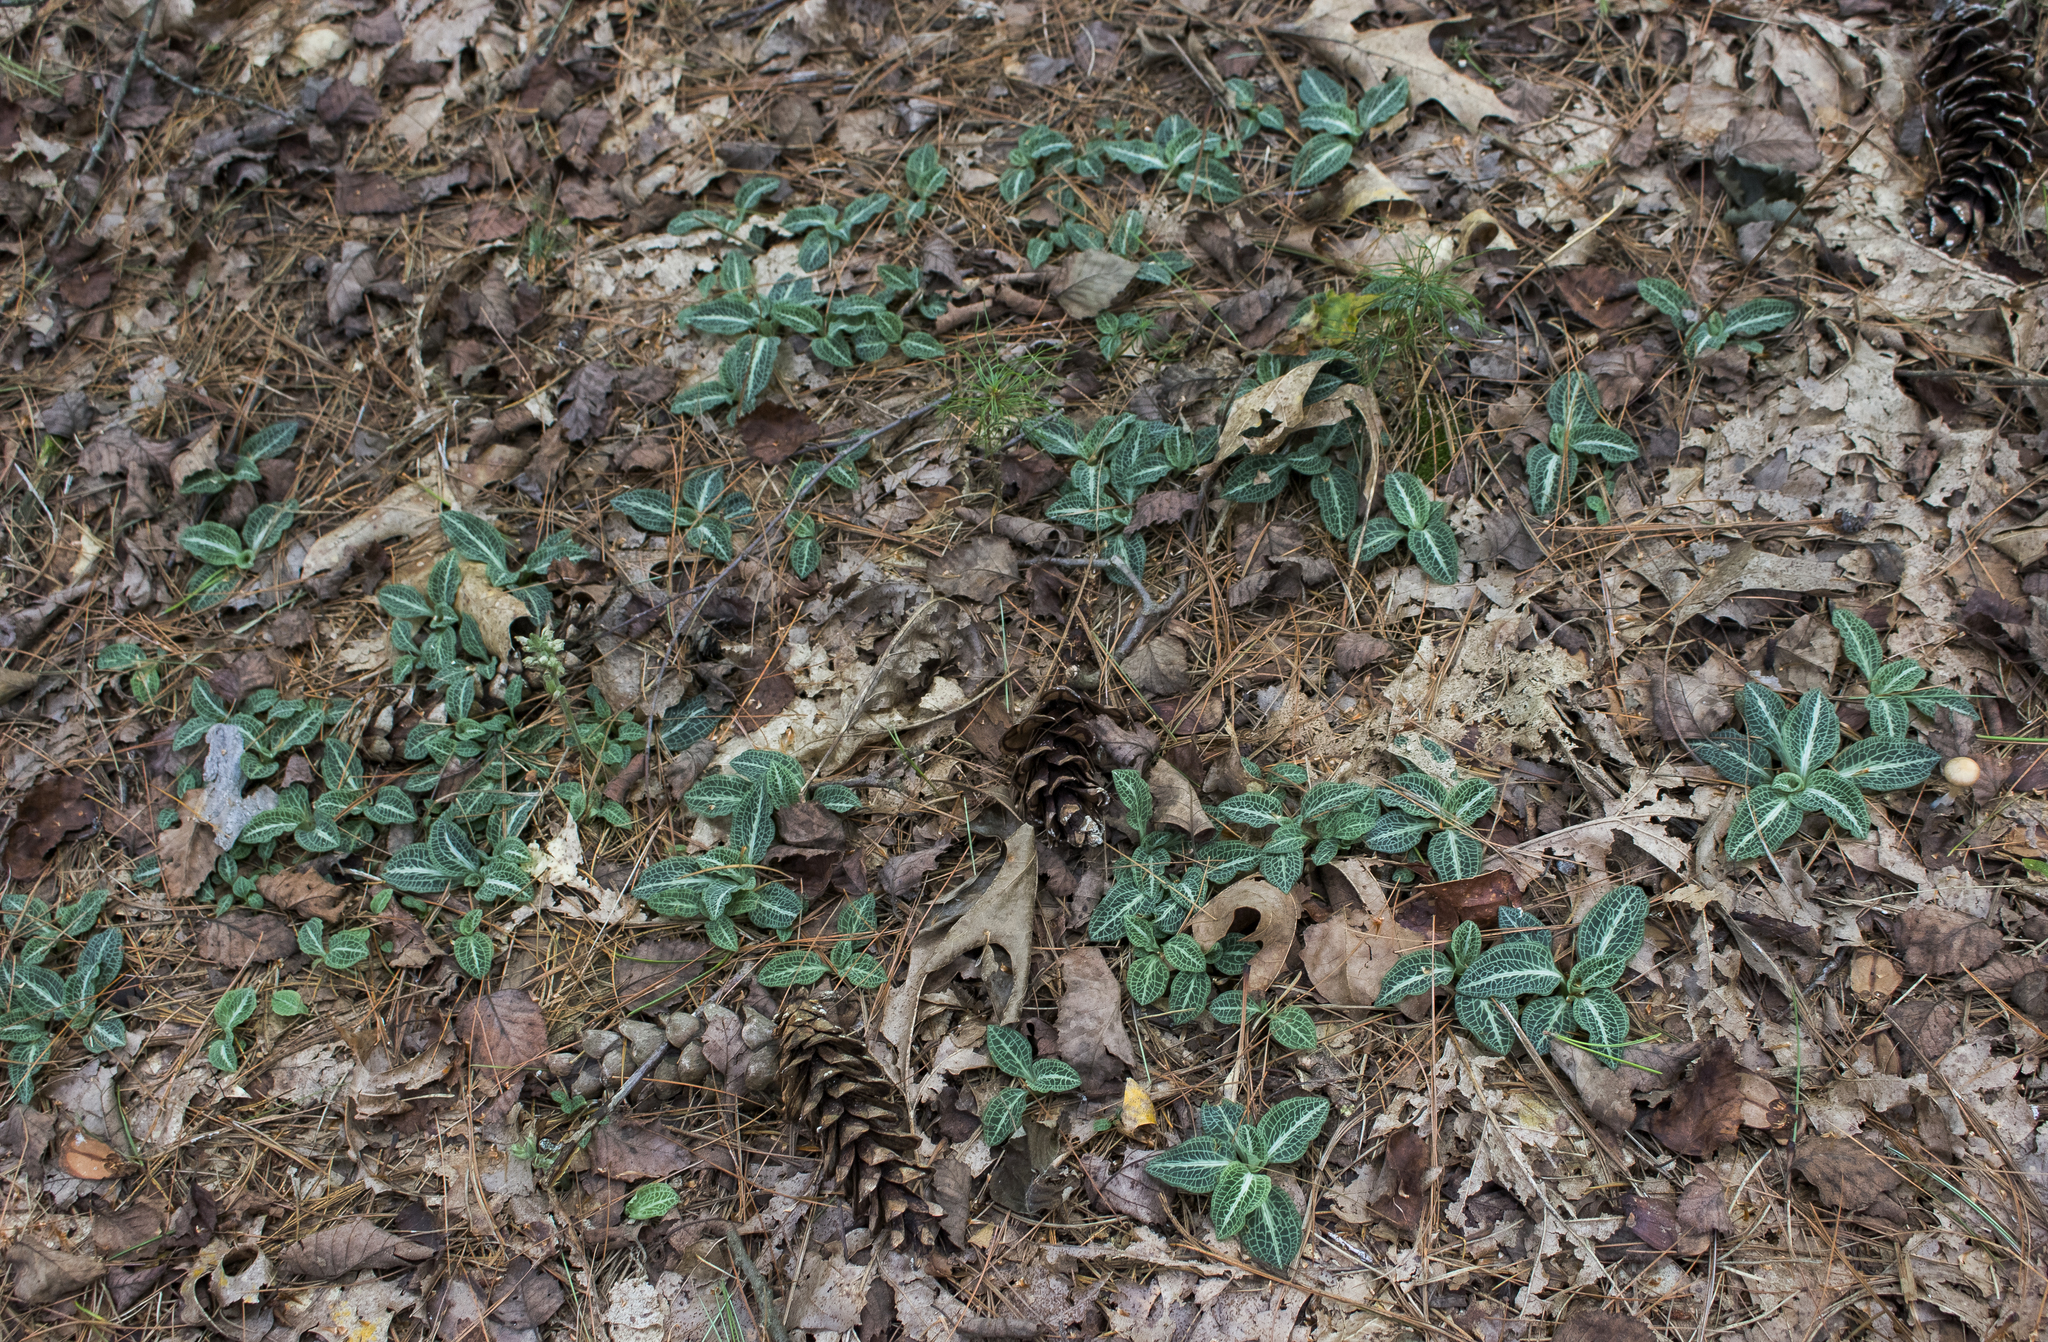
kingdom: Plantae
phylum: Tracheophyta
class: Liliopsida
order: Asparagales
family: Orchidaceae
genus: Goodyera
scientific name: Goodyera pubescens
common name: Downy rattlesnake-plantain
